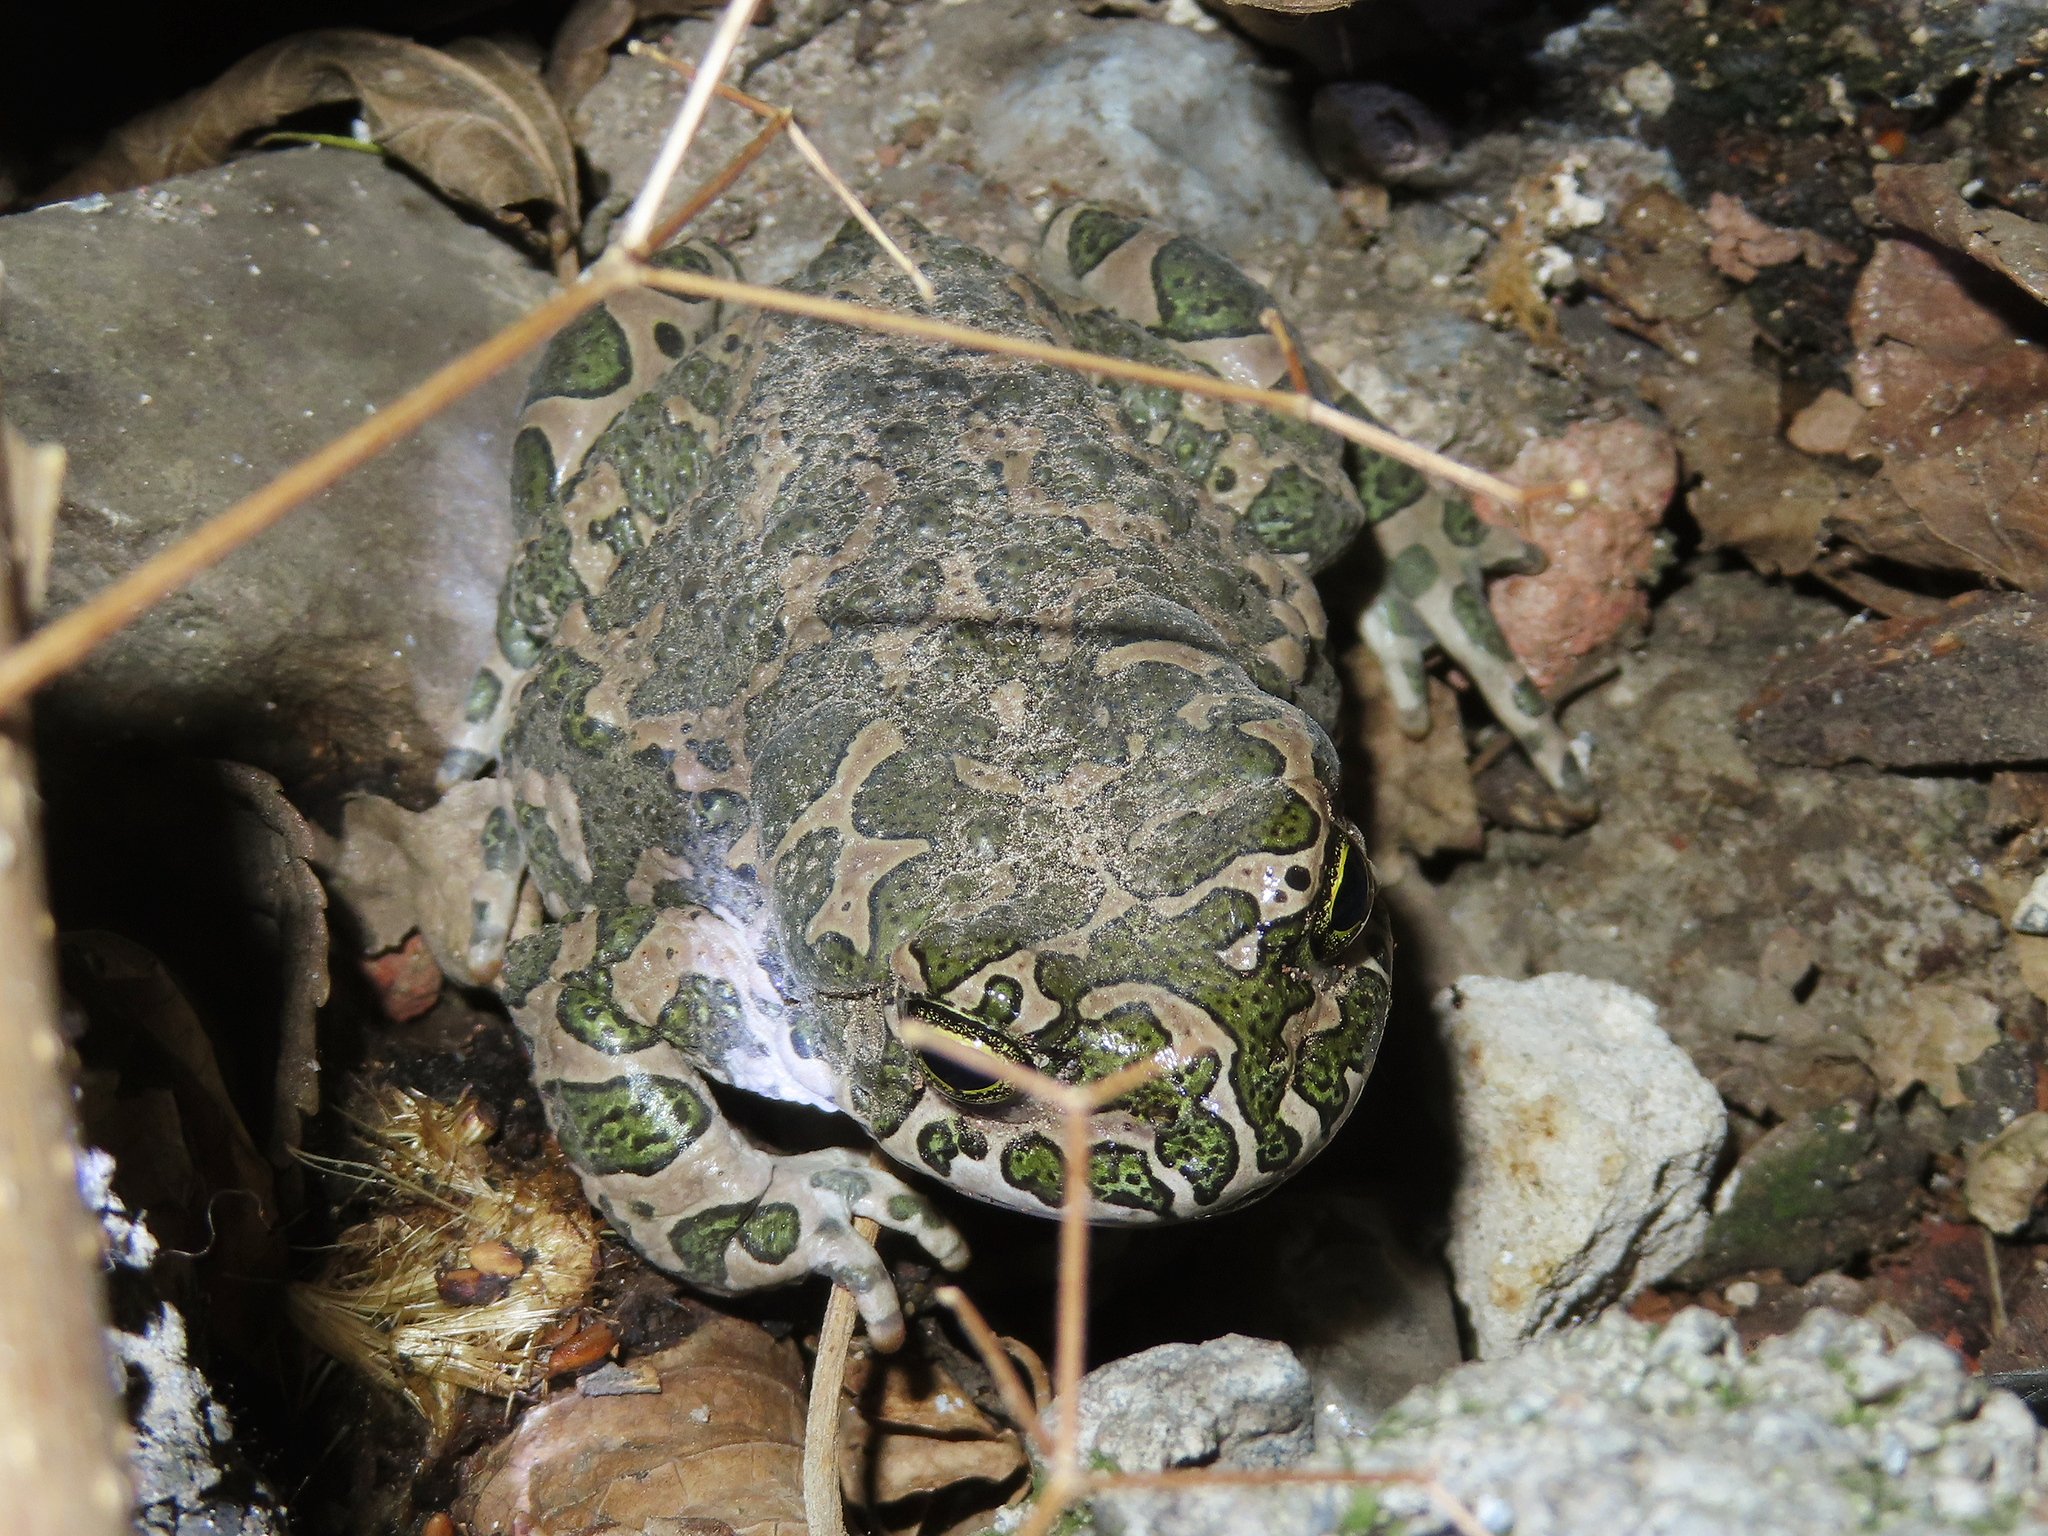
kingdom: Animalia
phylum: Chordata
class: Amphibia
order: Anura
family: Bufonidae
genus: Bufotes
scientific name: Bufotes viridis
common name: European green toad
